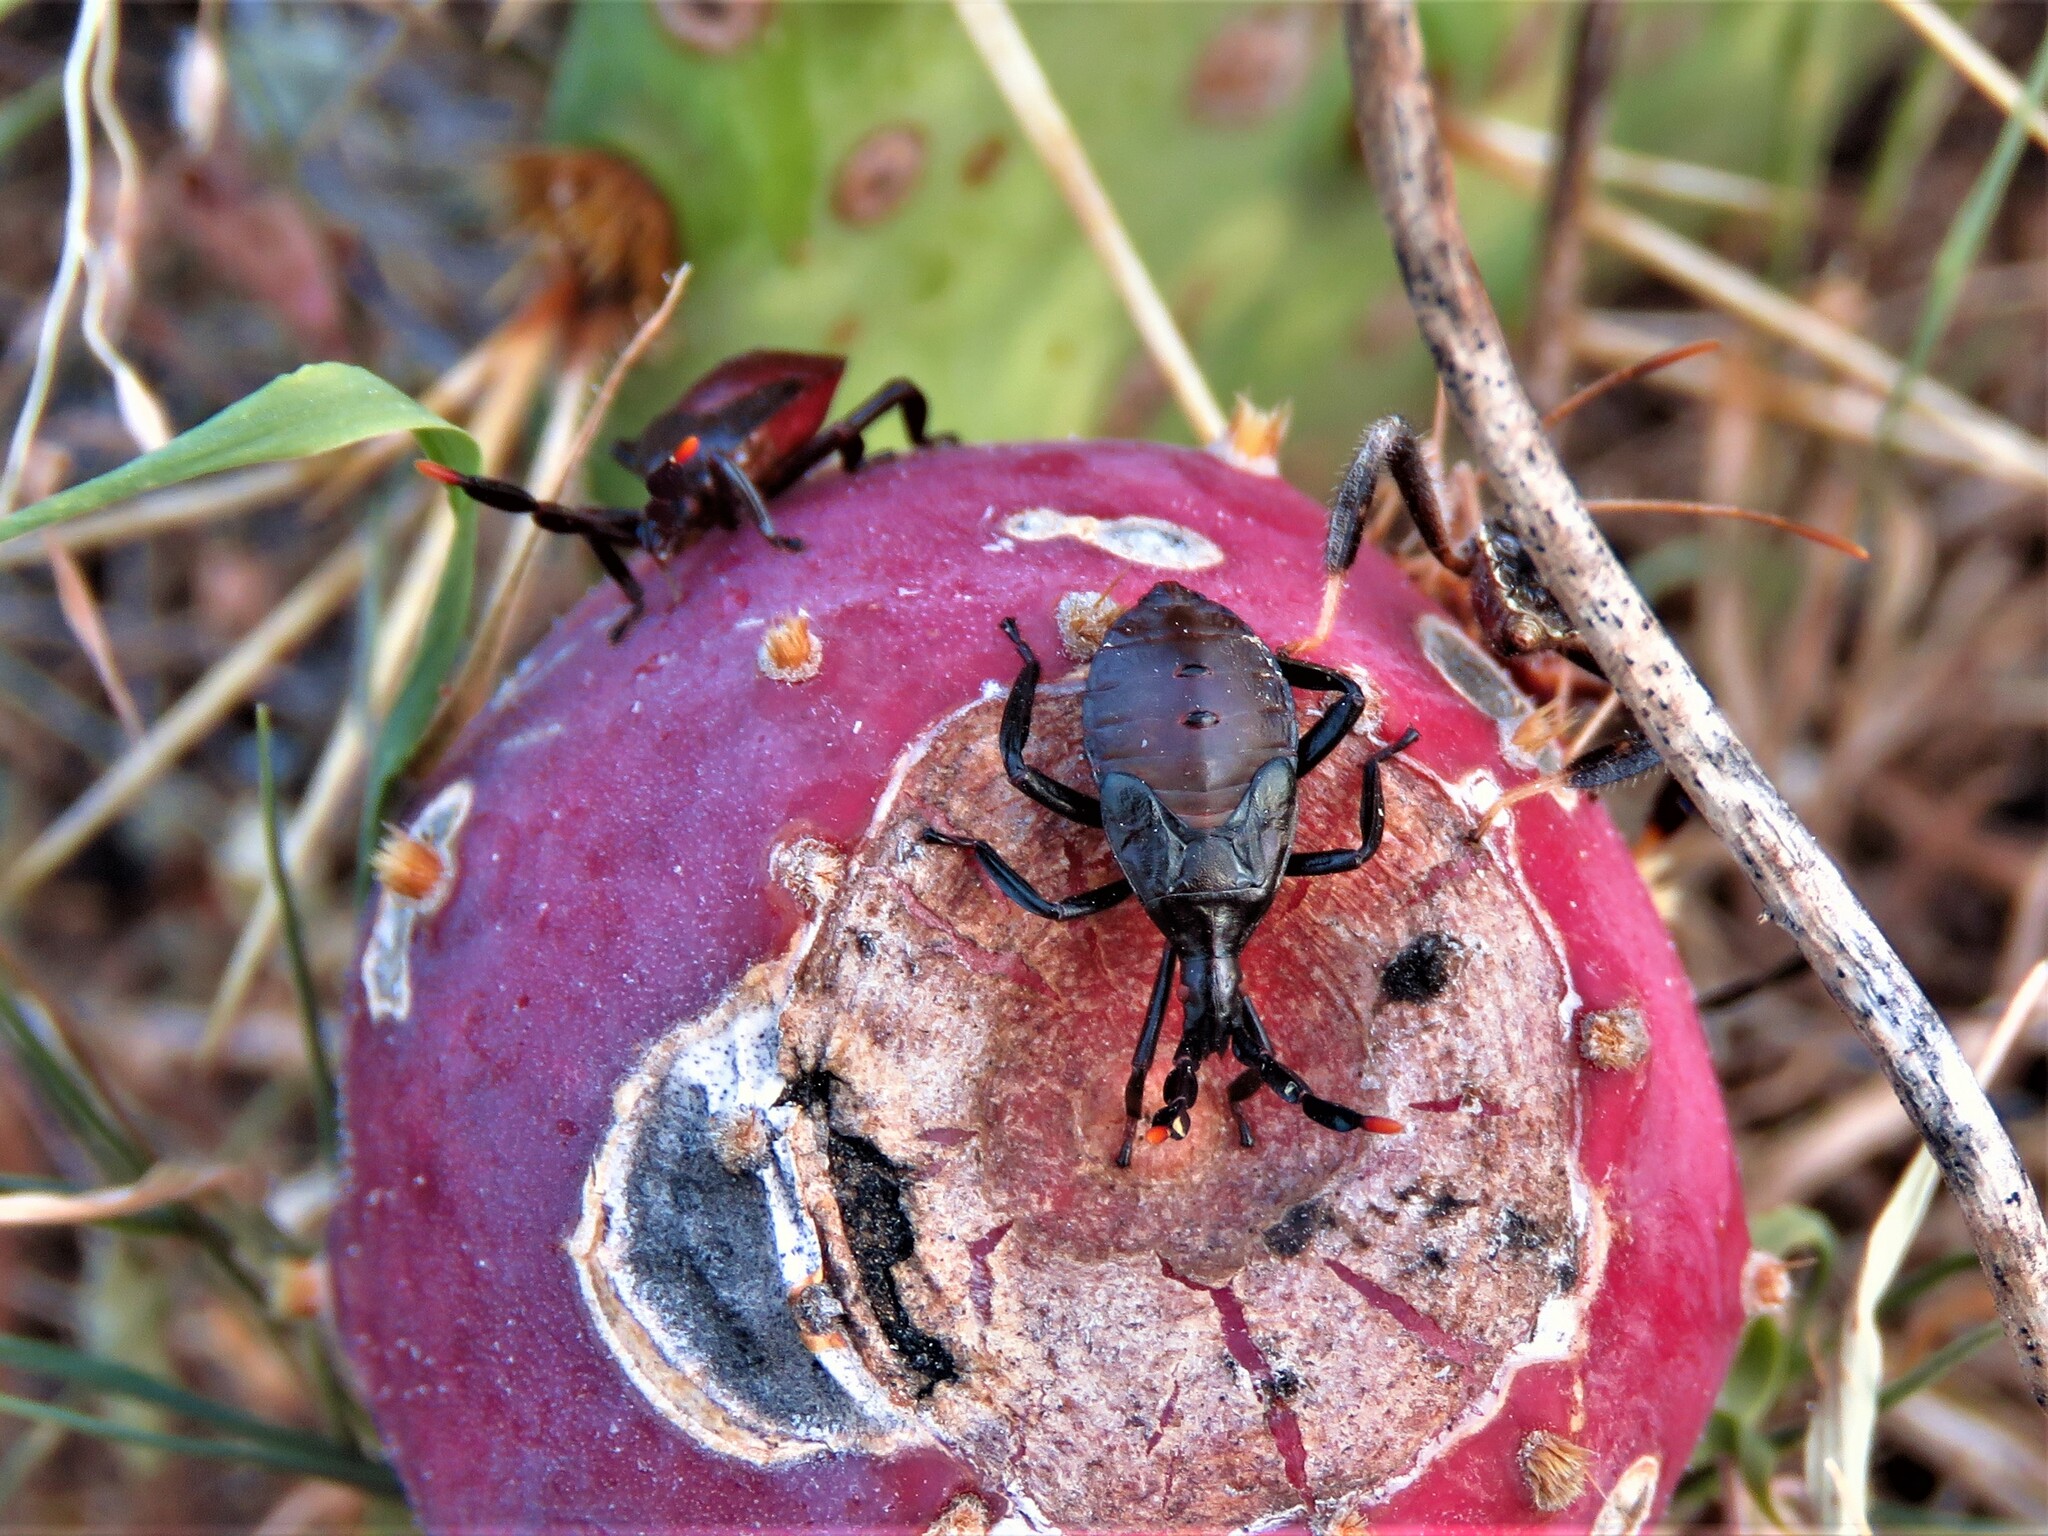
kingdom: Animalia
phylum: Arthropoda
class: Insecta
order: Hemiptera
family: Coreidae
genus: Chelinidea
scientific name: Chelinidea vittiger
